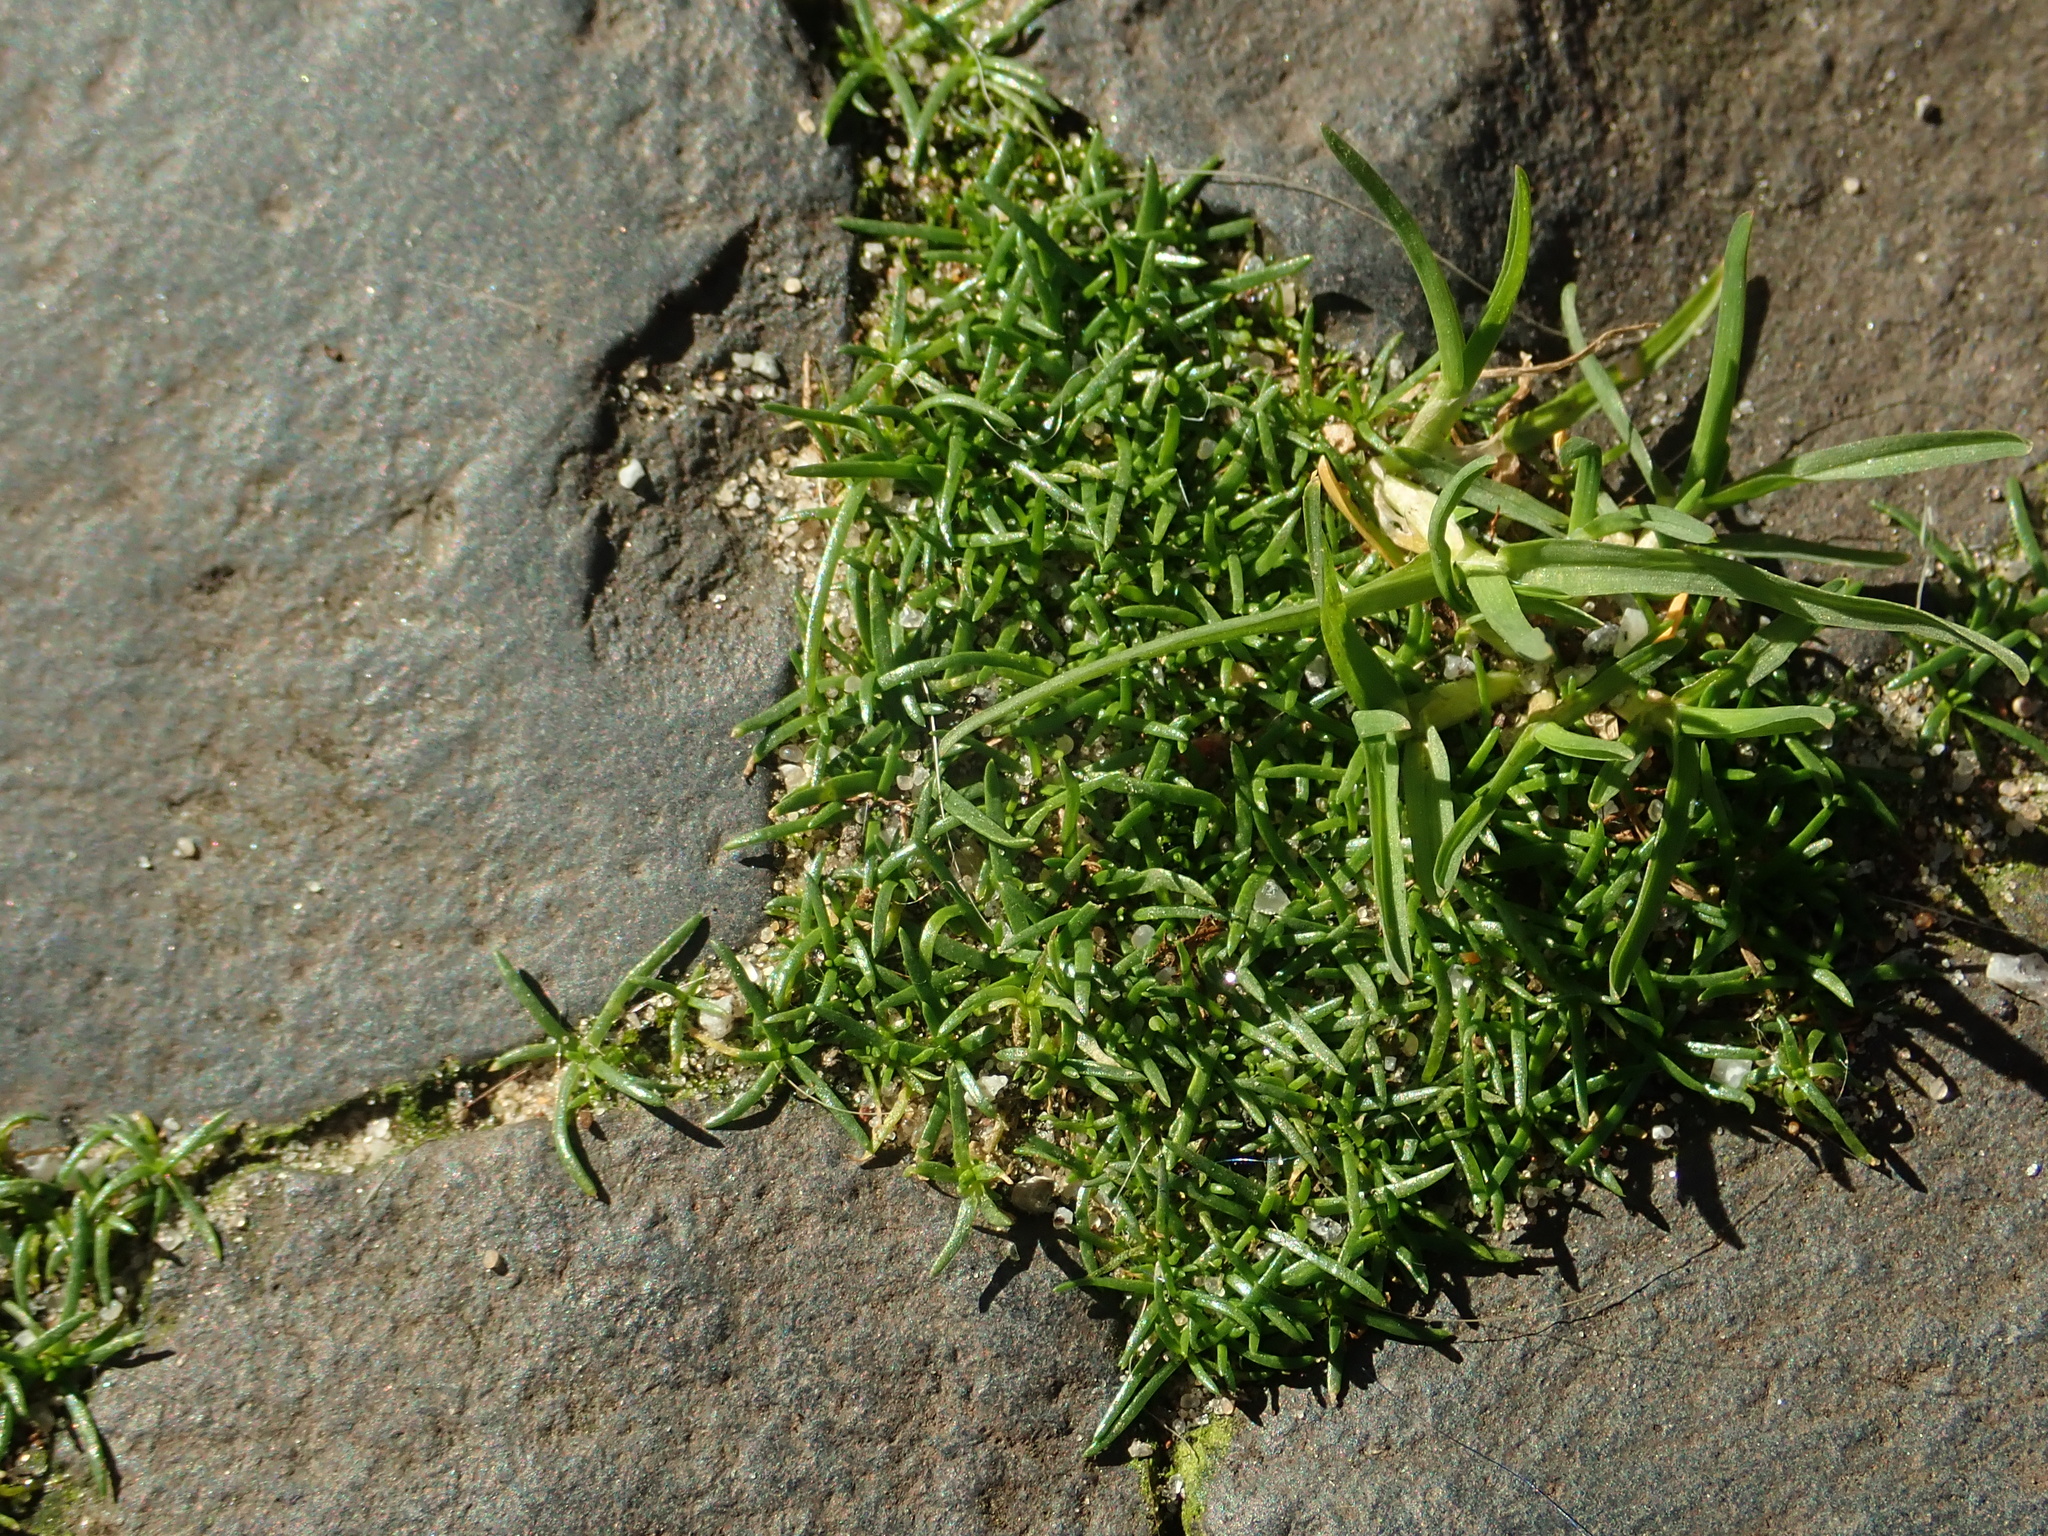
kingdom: Plantae
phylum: Tracheophyta
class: Magnoliopsida
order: Caryophyllales
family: Caryophyllaceae
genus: Sagina
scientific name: Sagina procumbens
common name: Procumbent pearlwort
